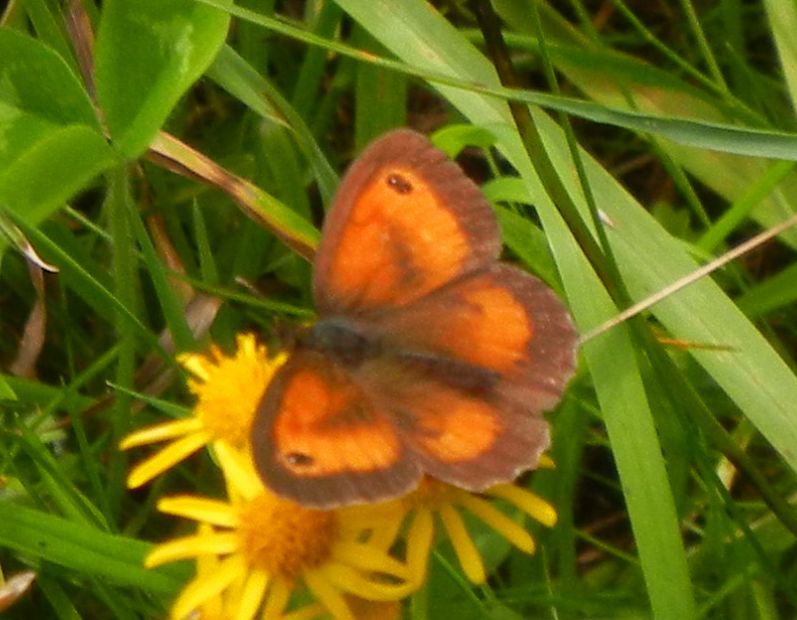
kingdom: Animalia
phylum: Arthropoda
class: Insecta
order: Lepidoptera
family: Nymphalidae
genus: Pyronia
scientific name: Pyronia tithonus
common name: Gatekeeper
